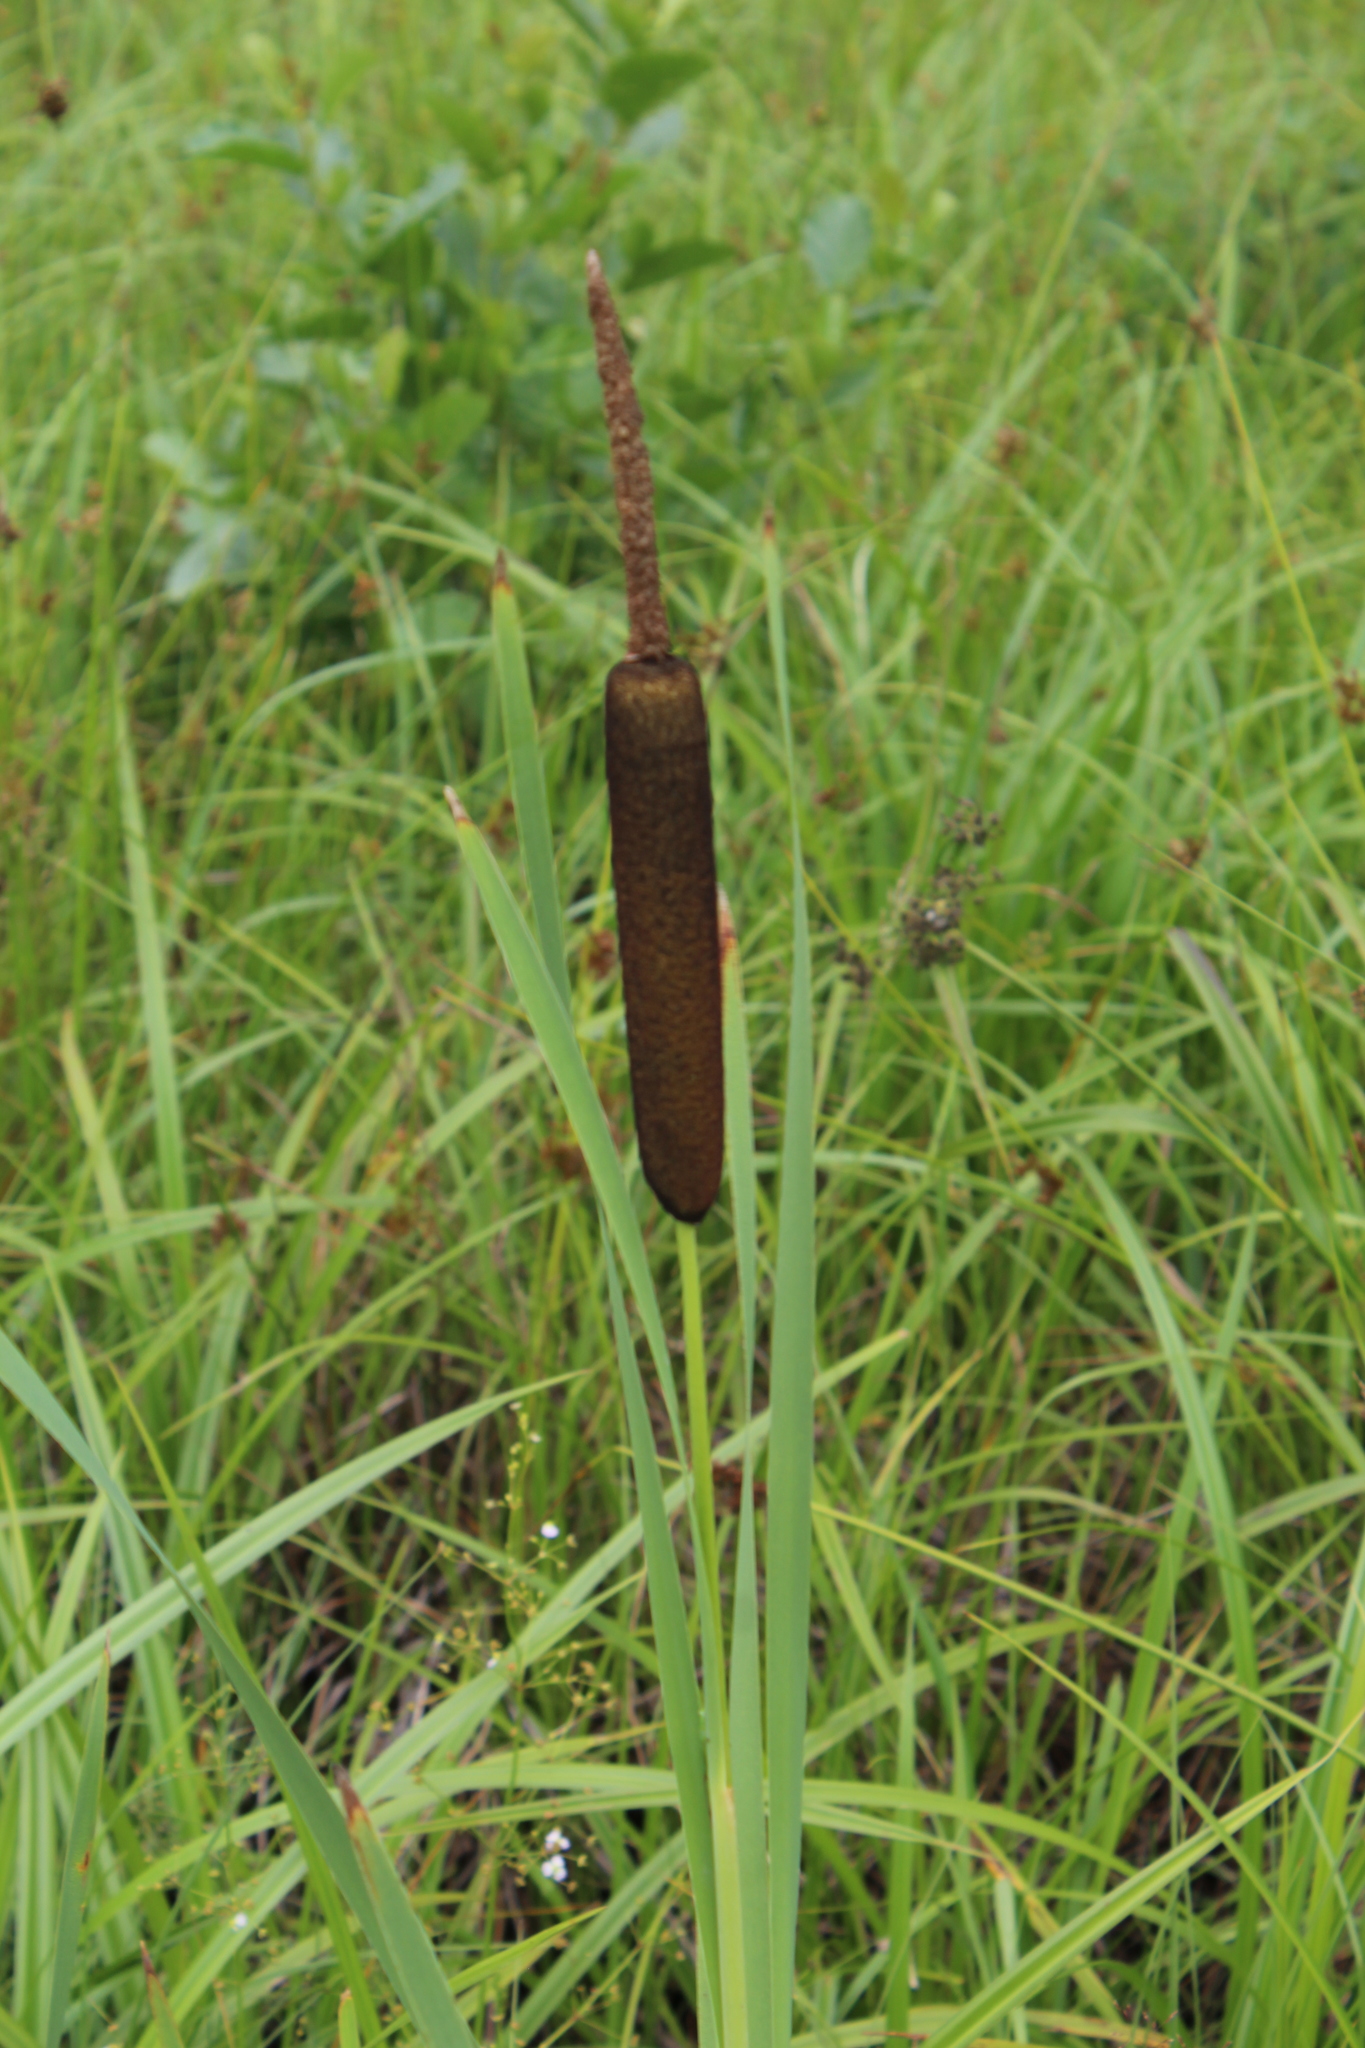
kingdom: Plantae
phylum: Tracheophyta
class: Liliopsida
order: Poales
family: Typhaceae
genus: Typha
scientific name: Typha latifolia
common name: Broadleaf cattail
